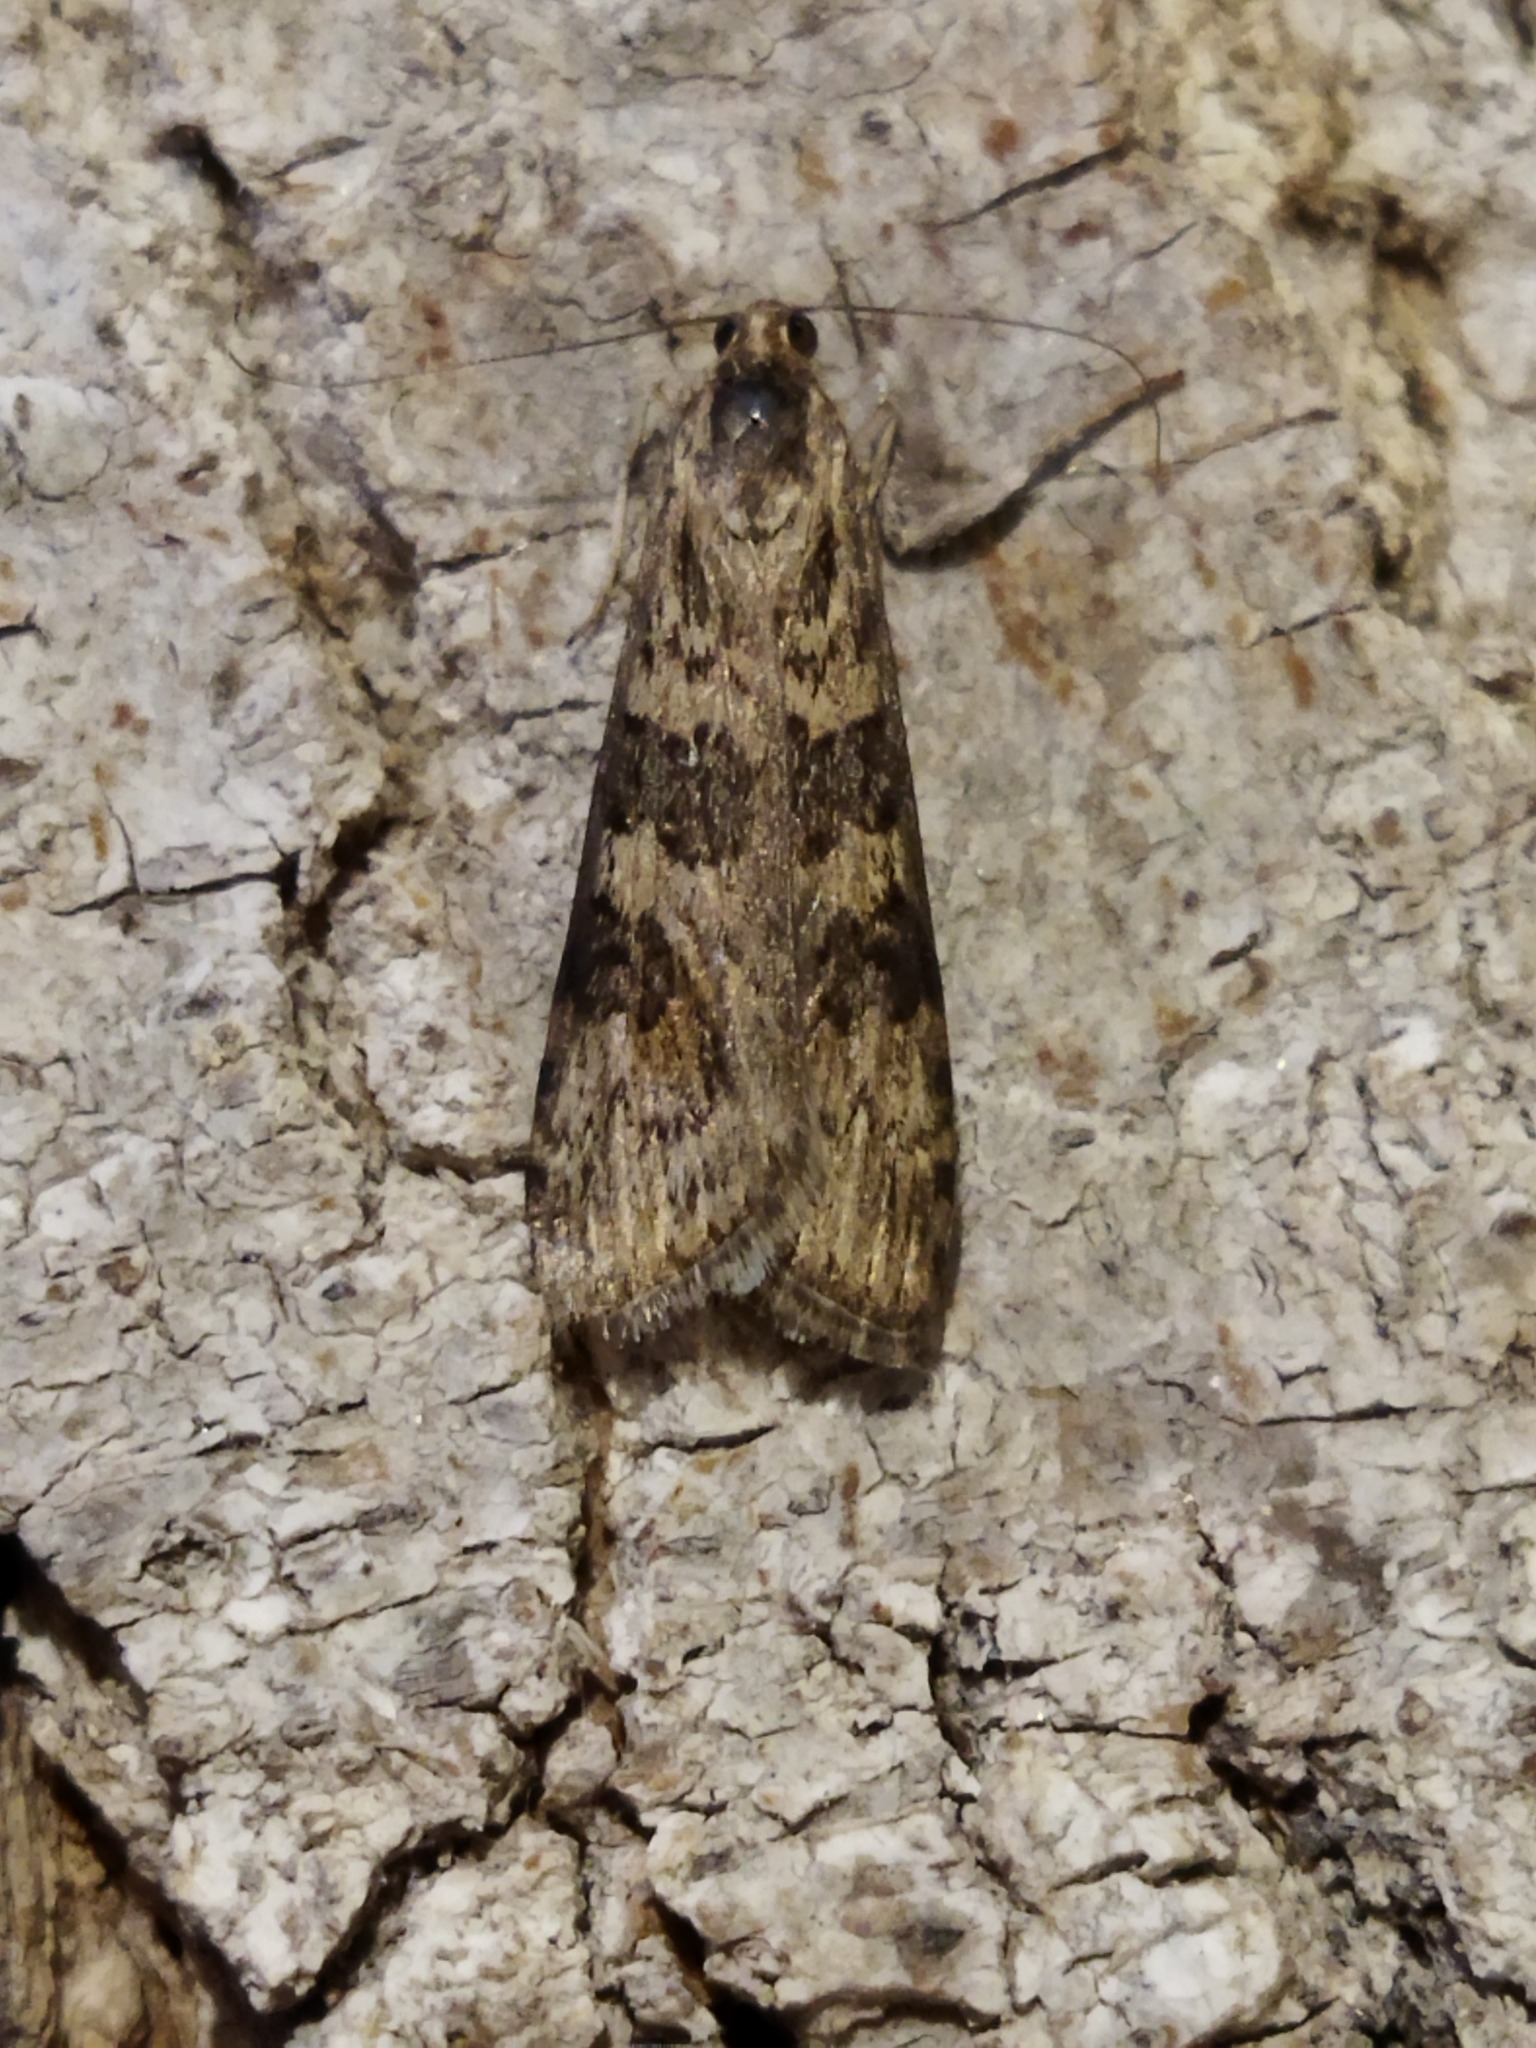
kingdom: Animalia
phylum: Arthropoda
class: Insecta
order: Lepidoptera
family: Crambidae
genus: Nomophila
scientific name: Nomophila noctuella
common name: Rush veneer
